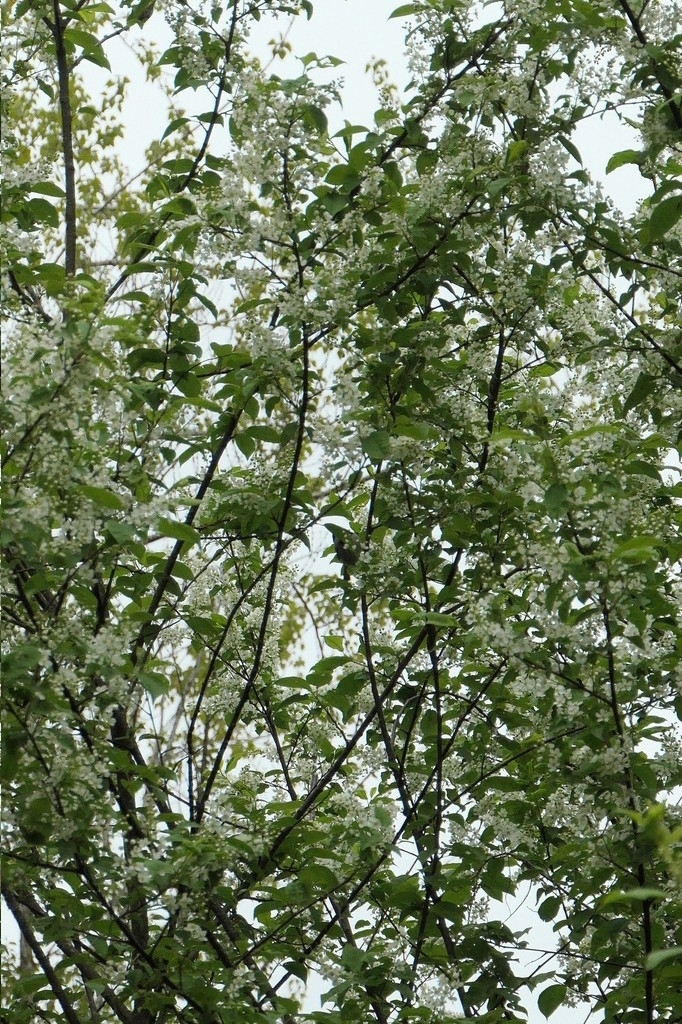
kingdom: Plantae
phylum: Tracheophyta
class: Magnoliopsida
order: Rosales
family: Rosaceae
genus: Prunus
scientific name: Prunus padus
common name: Bird cherry
